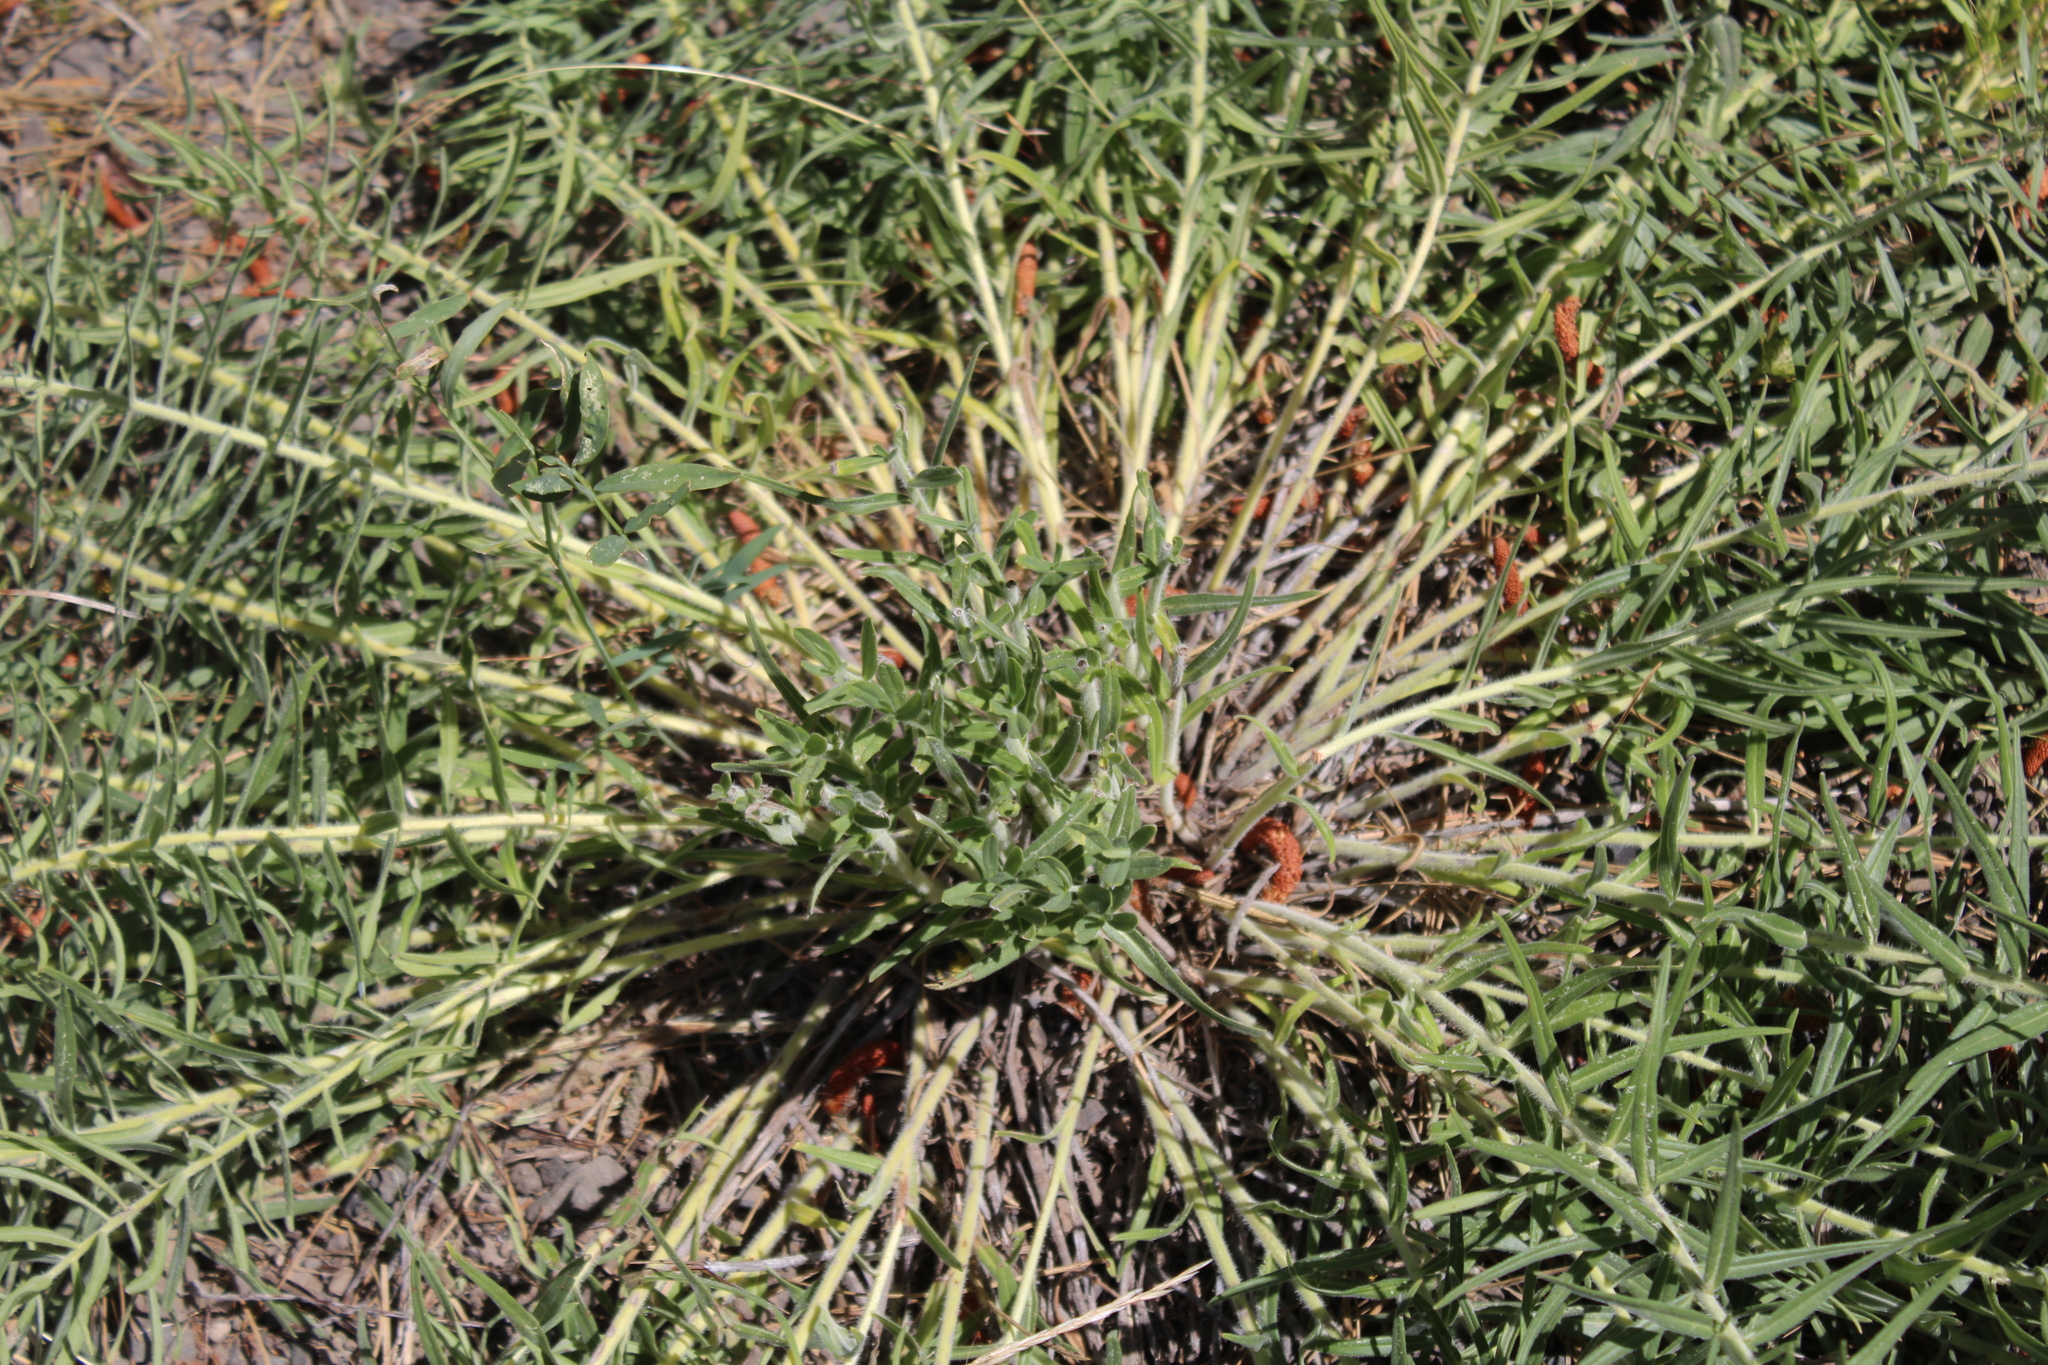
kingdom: Plantae
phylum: Tracheophyta
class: Magnoliopsida
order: Boraginales
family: Boraginaceae
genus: Lithospermum
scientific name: Lithospermum ruderale
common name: Western gromwell
